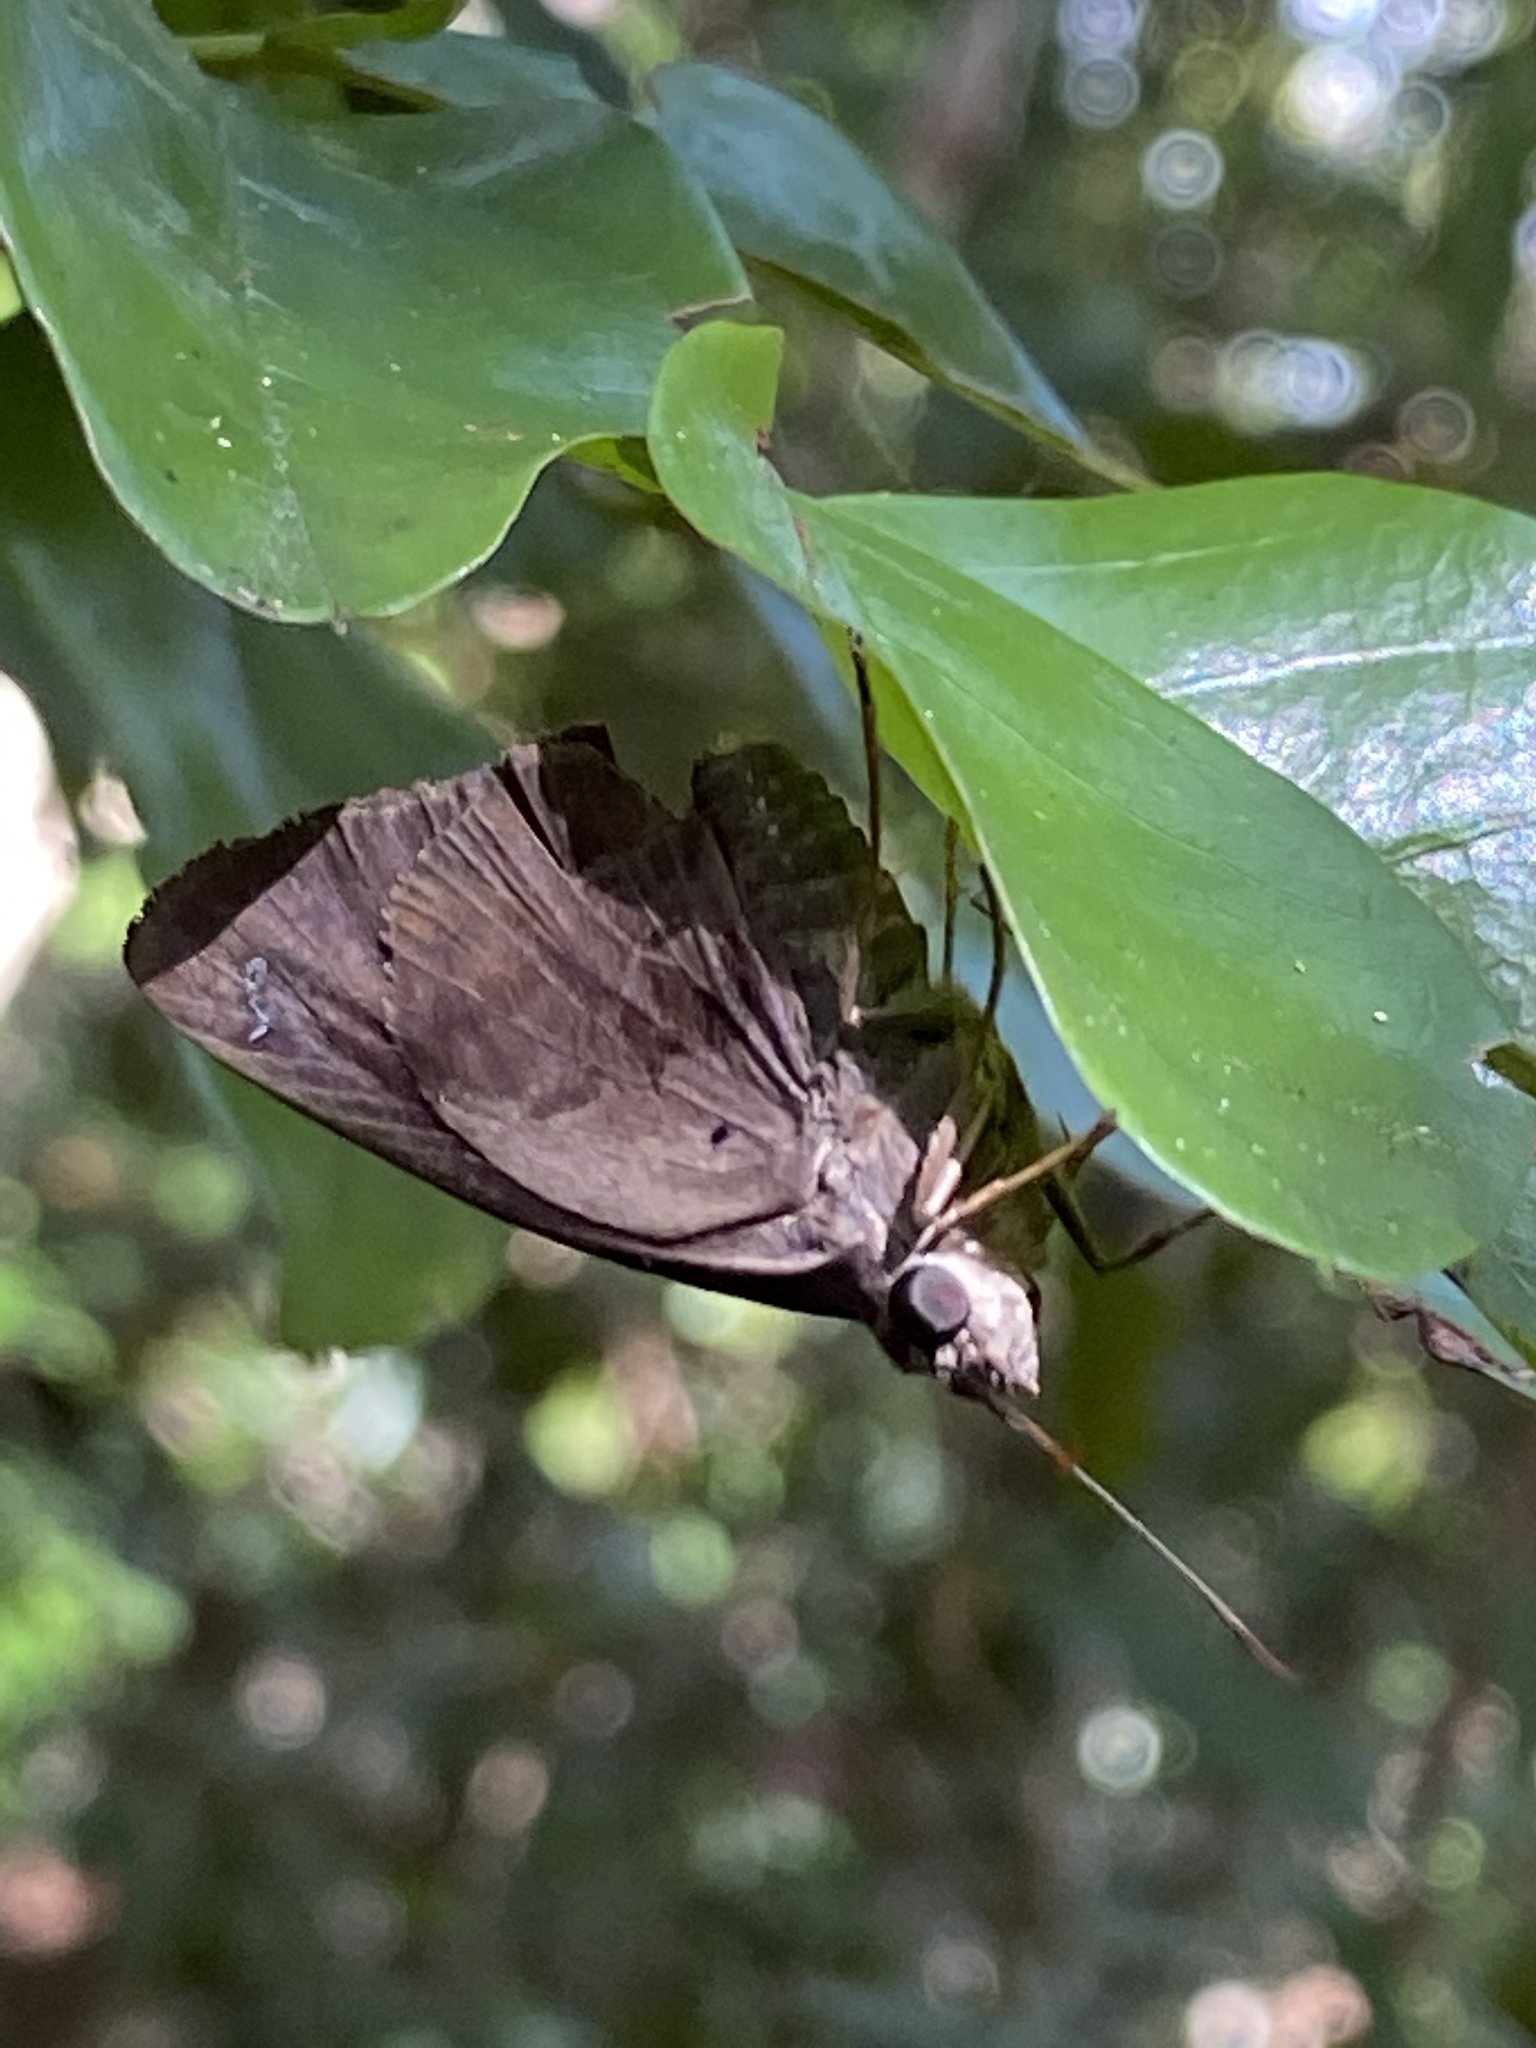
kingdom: Animalia
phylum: Arthropoda
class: Insecta
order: Lepidoptera
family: Hesperiidae
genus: Polygonus
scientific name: Polygonus leo
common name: Hammoch skipper
